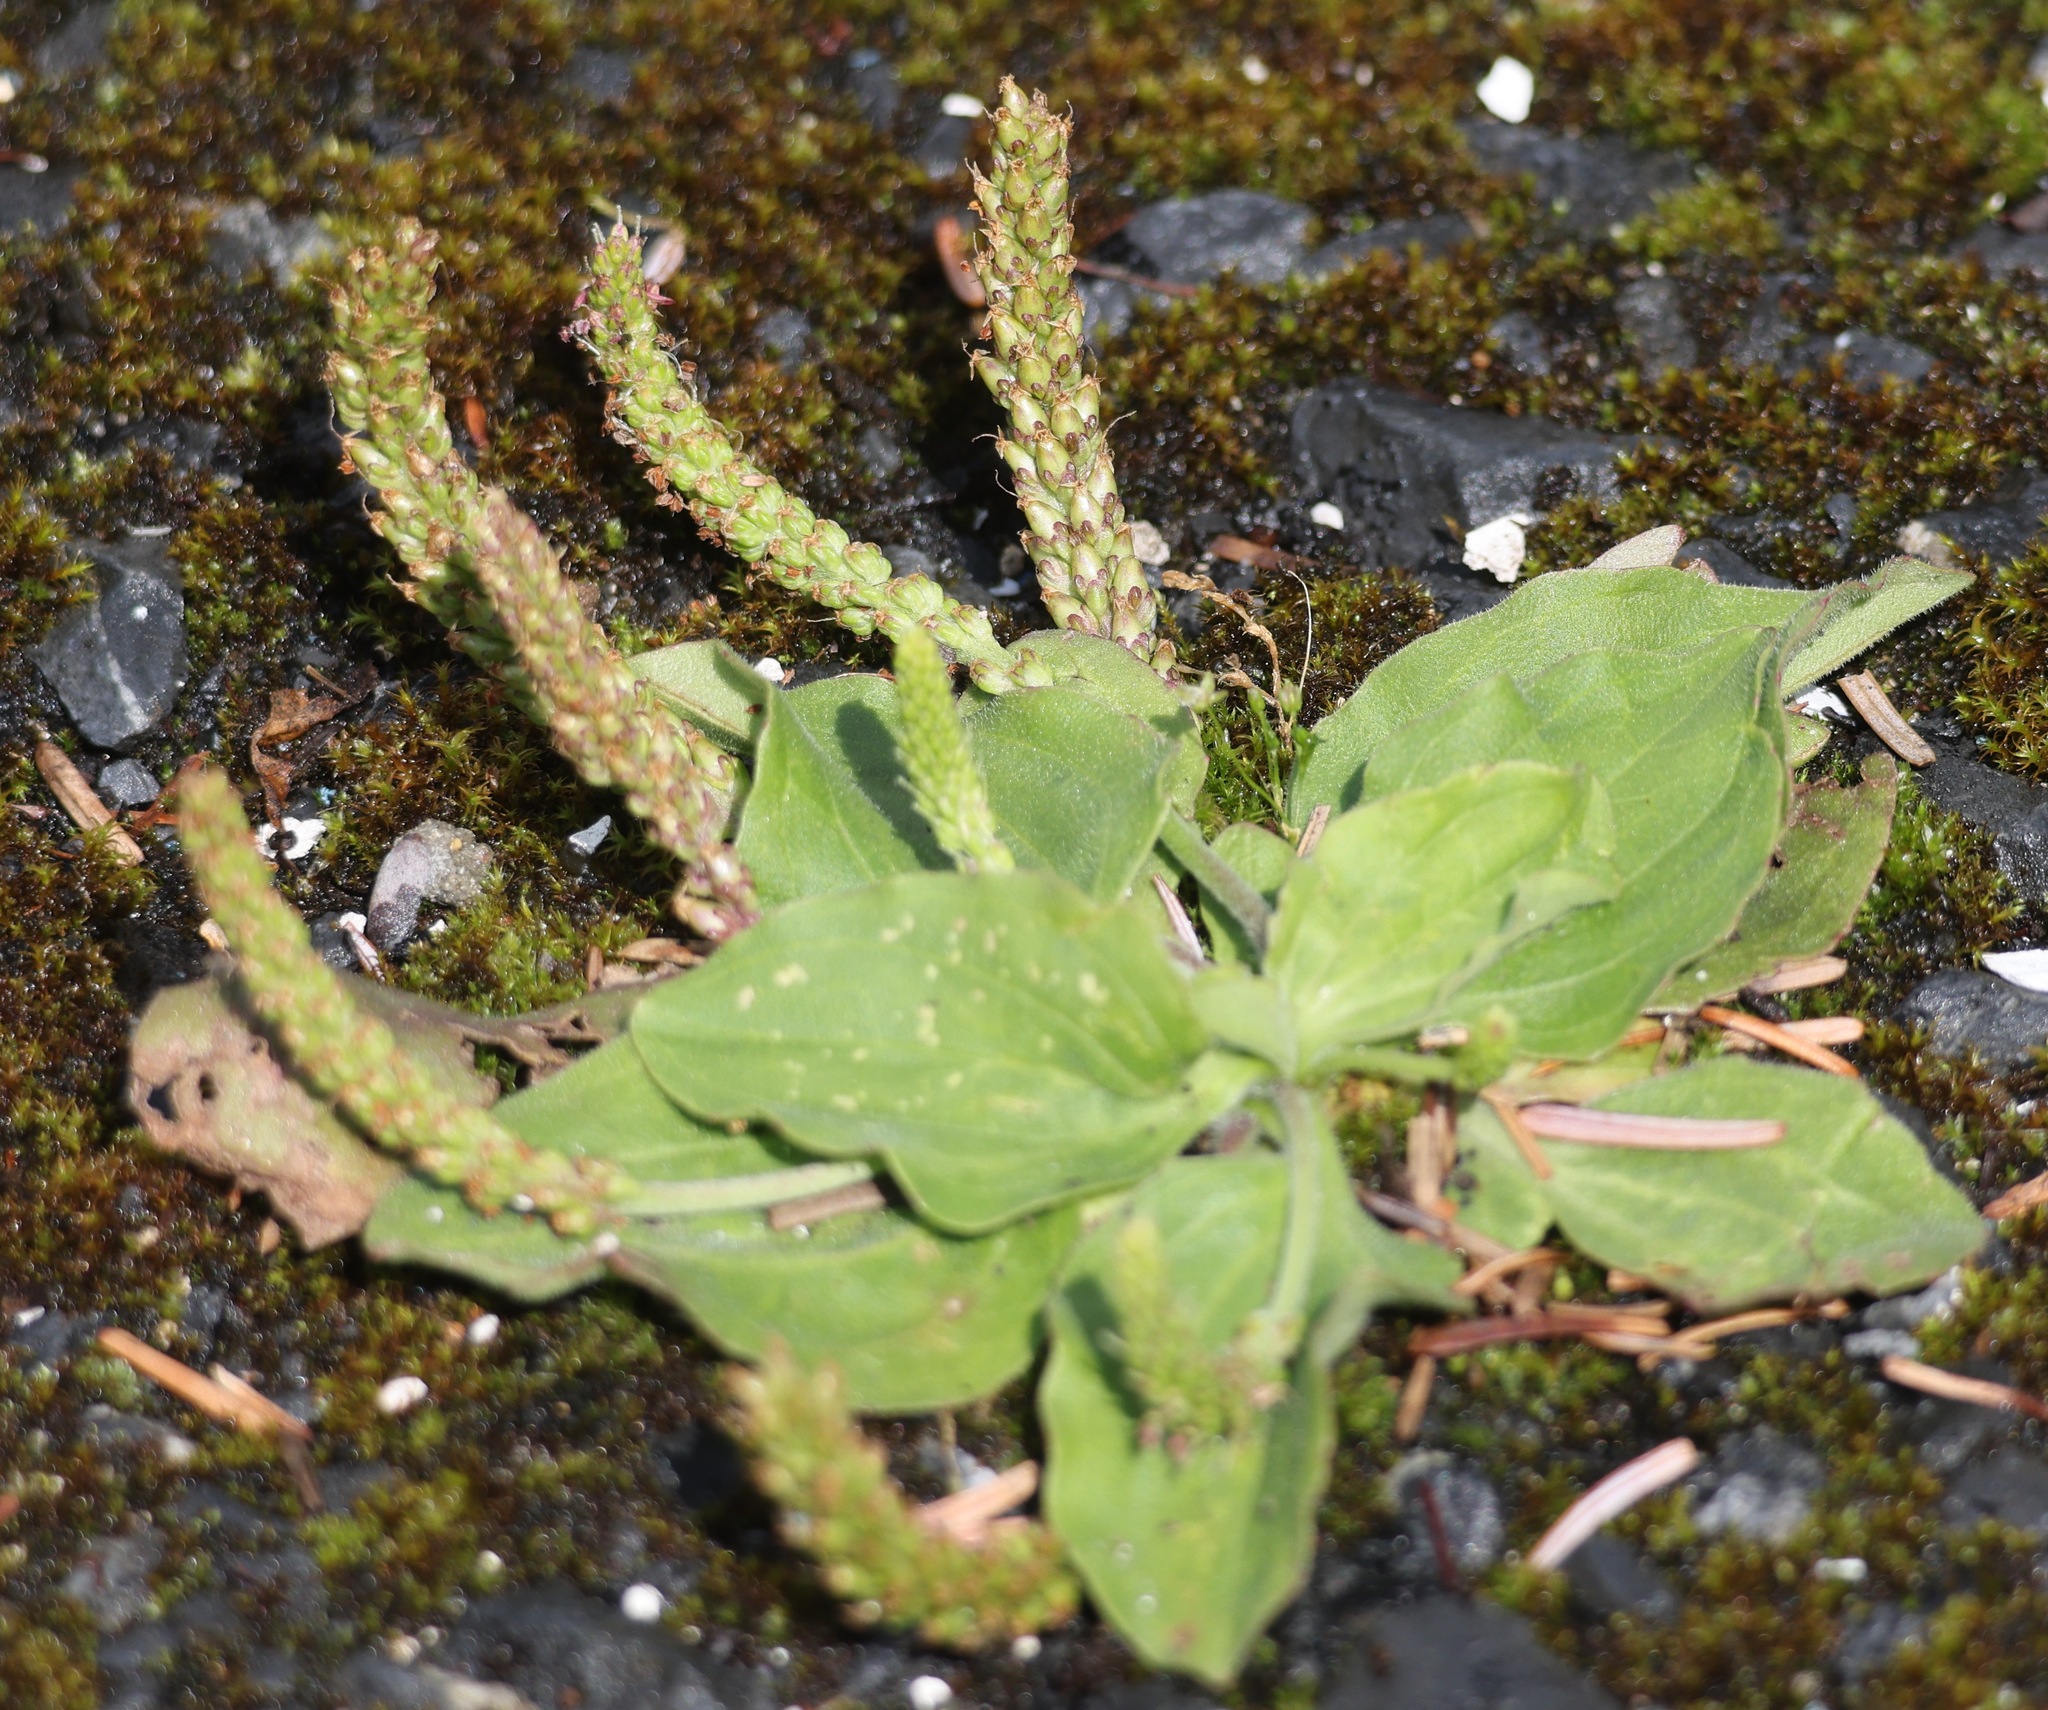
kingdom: Plantae
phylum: Tracheophyta
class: Magnoliopsida
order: Lamiales
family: Plantaginaceae
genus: Plantago
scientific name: Plantago major
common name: Common plantain
